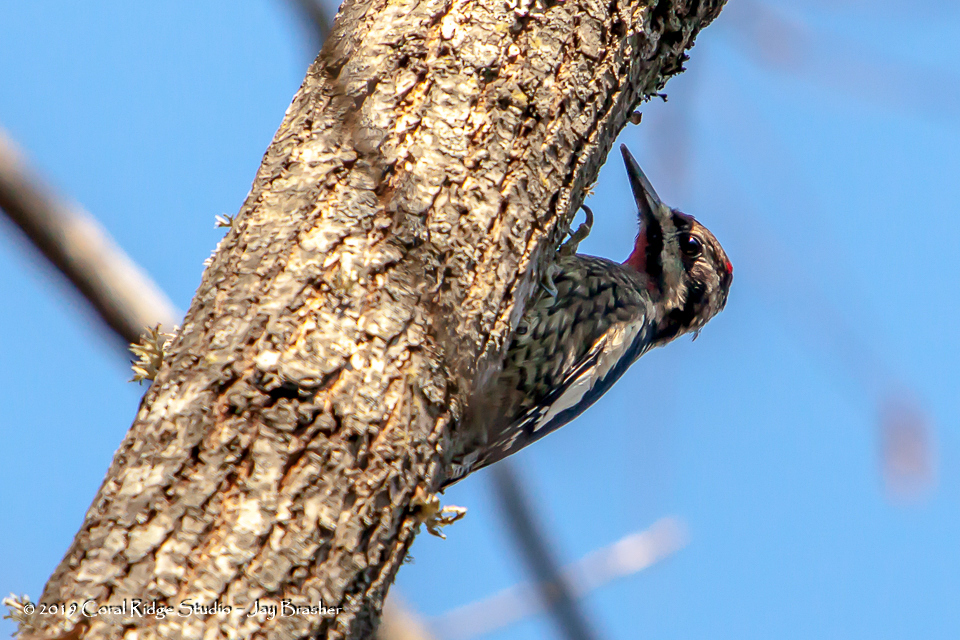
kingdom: Animalia
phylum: Chordata
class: Aves
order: Piciformes
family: Picidae
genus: Sphyrapicus
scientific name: Sphyrapicus varius
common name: Yellow-bellied sapsucker
